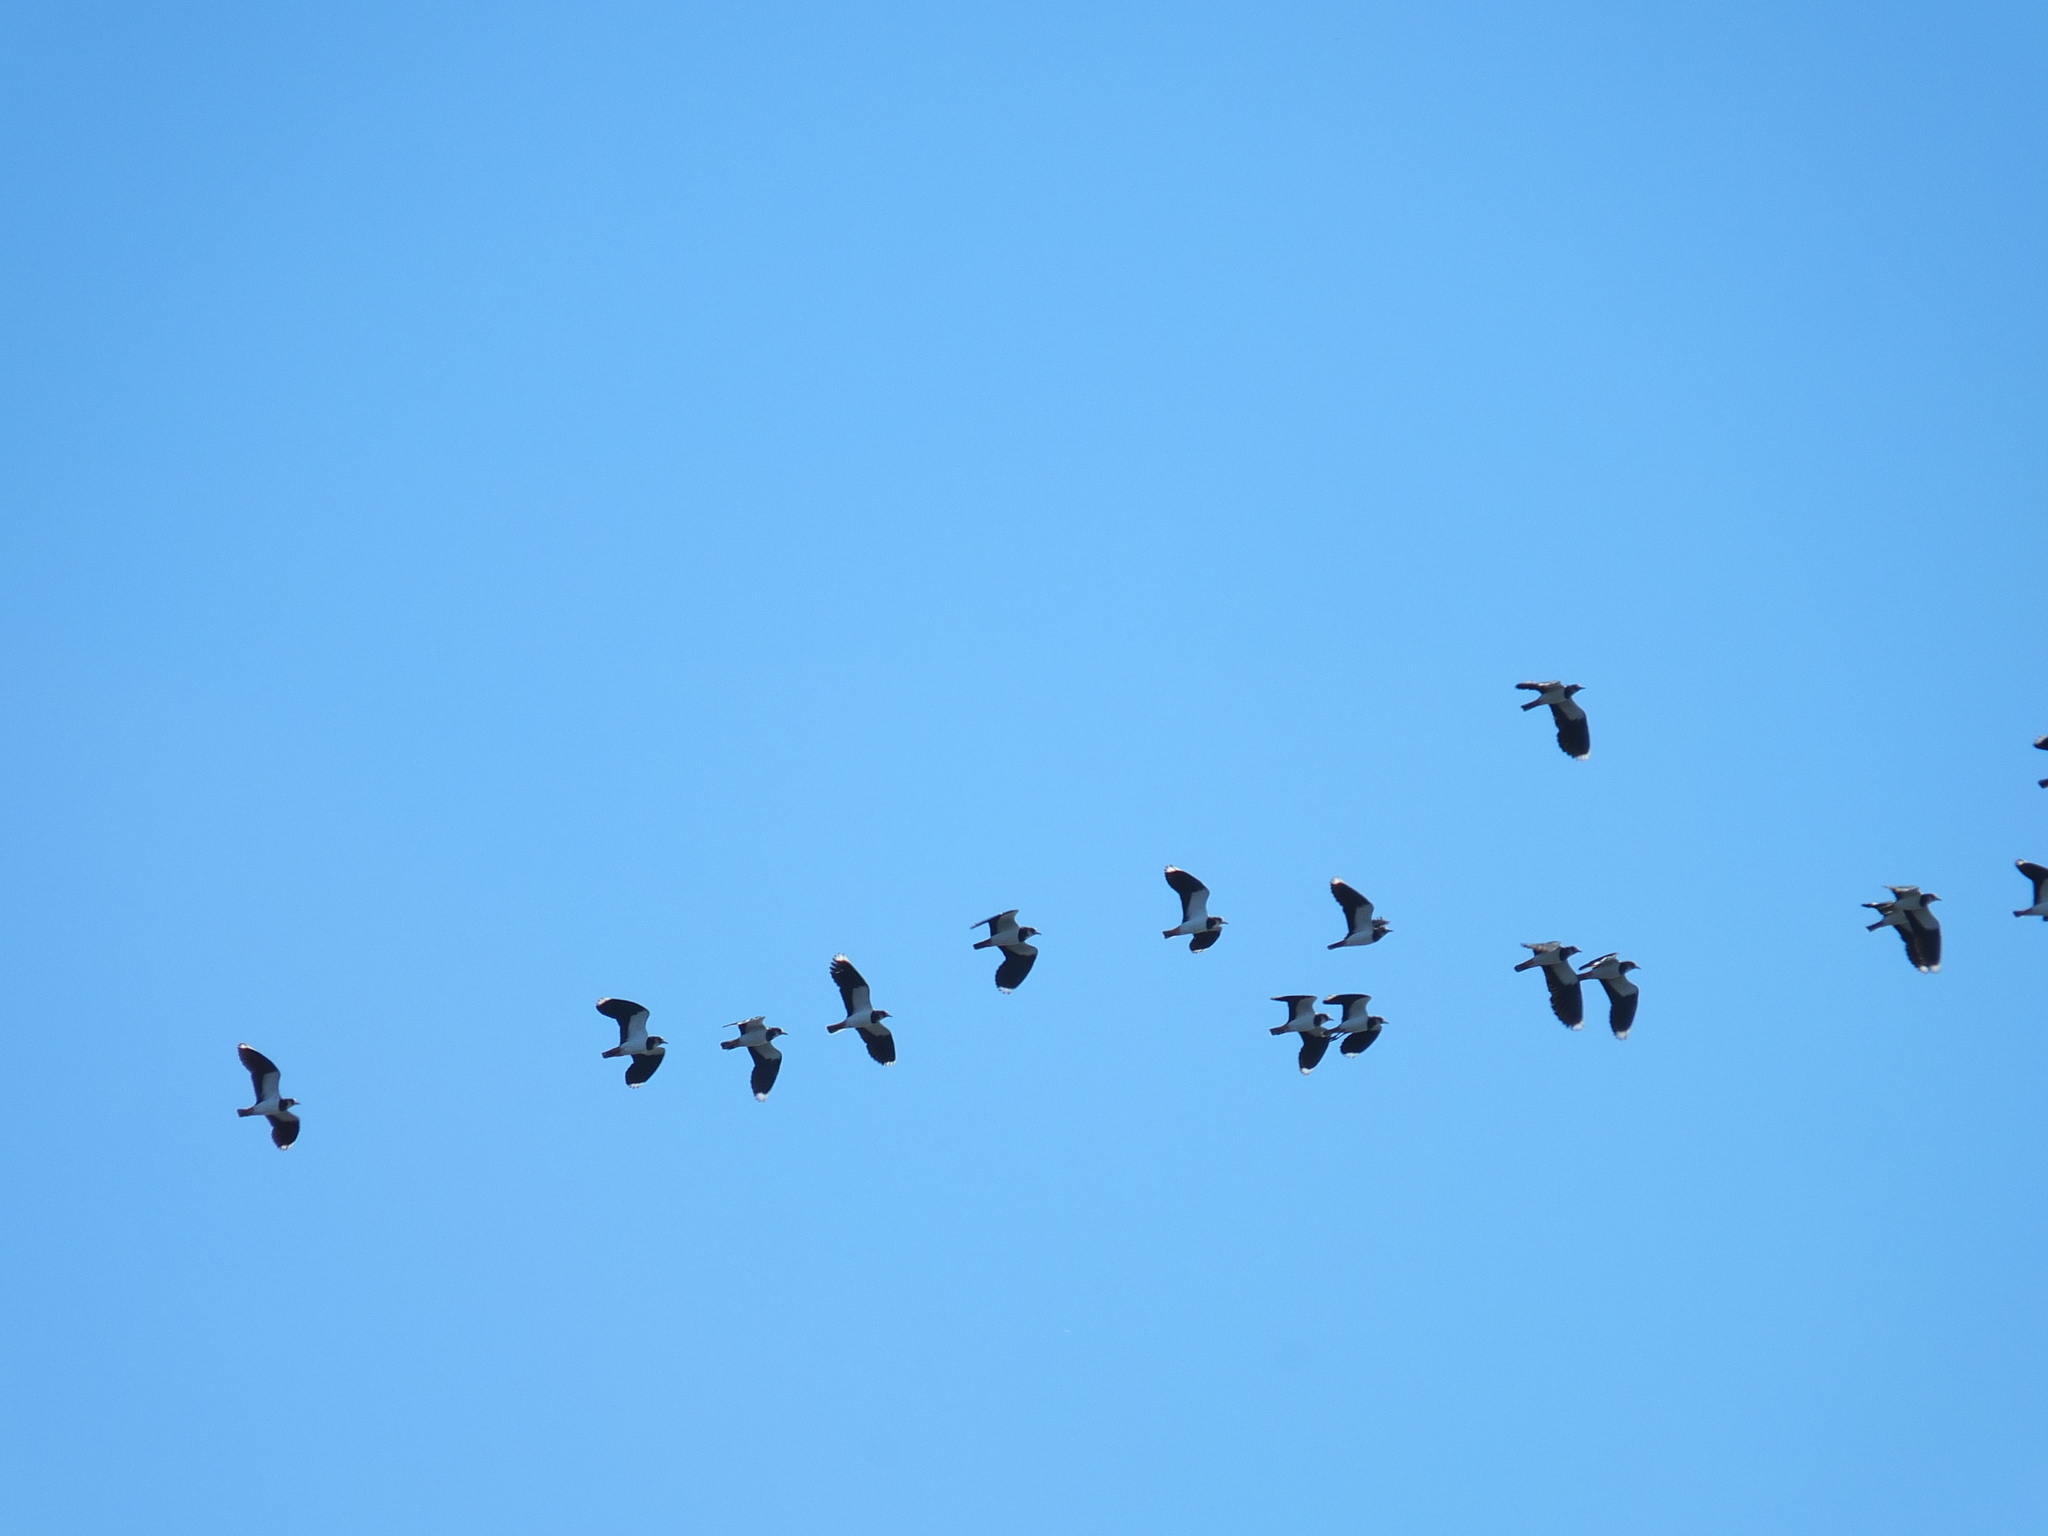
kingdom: Animalia
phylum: Chordata
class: Aves
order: Charadriiformes
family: Charadriidae
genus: Vanellus
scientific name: Vanellus vanellus
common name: Northern lapwing
